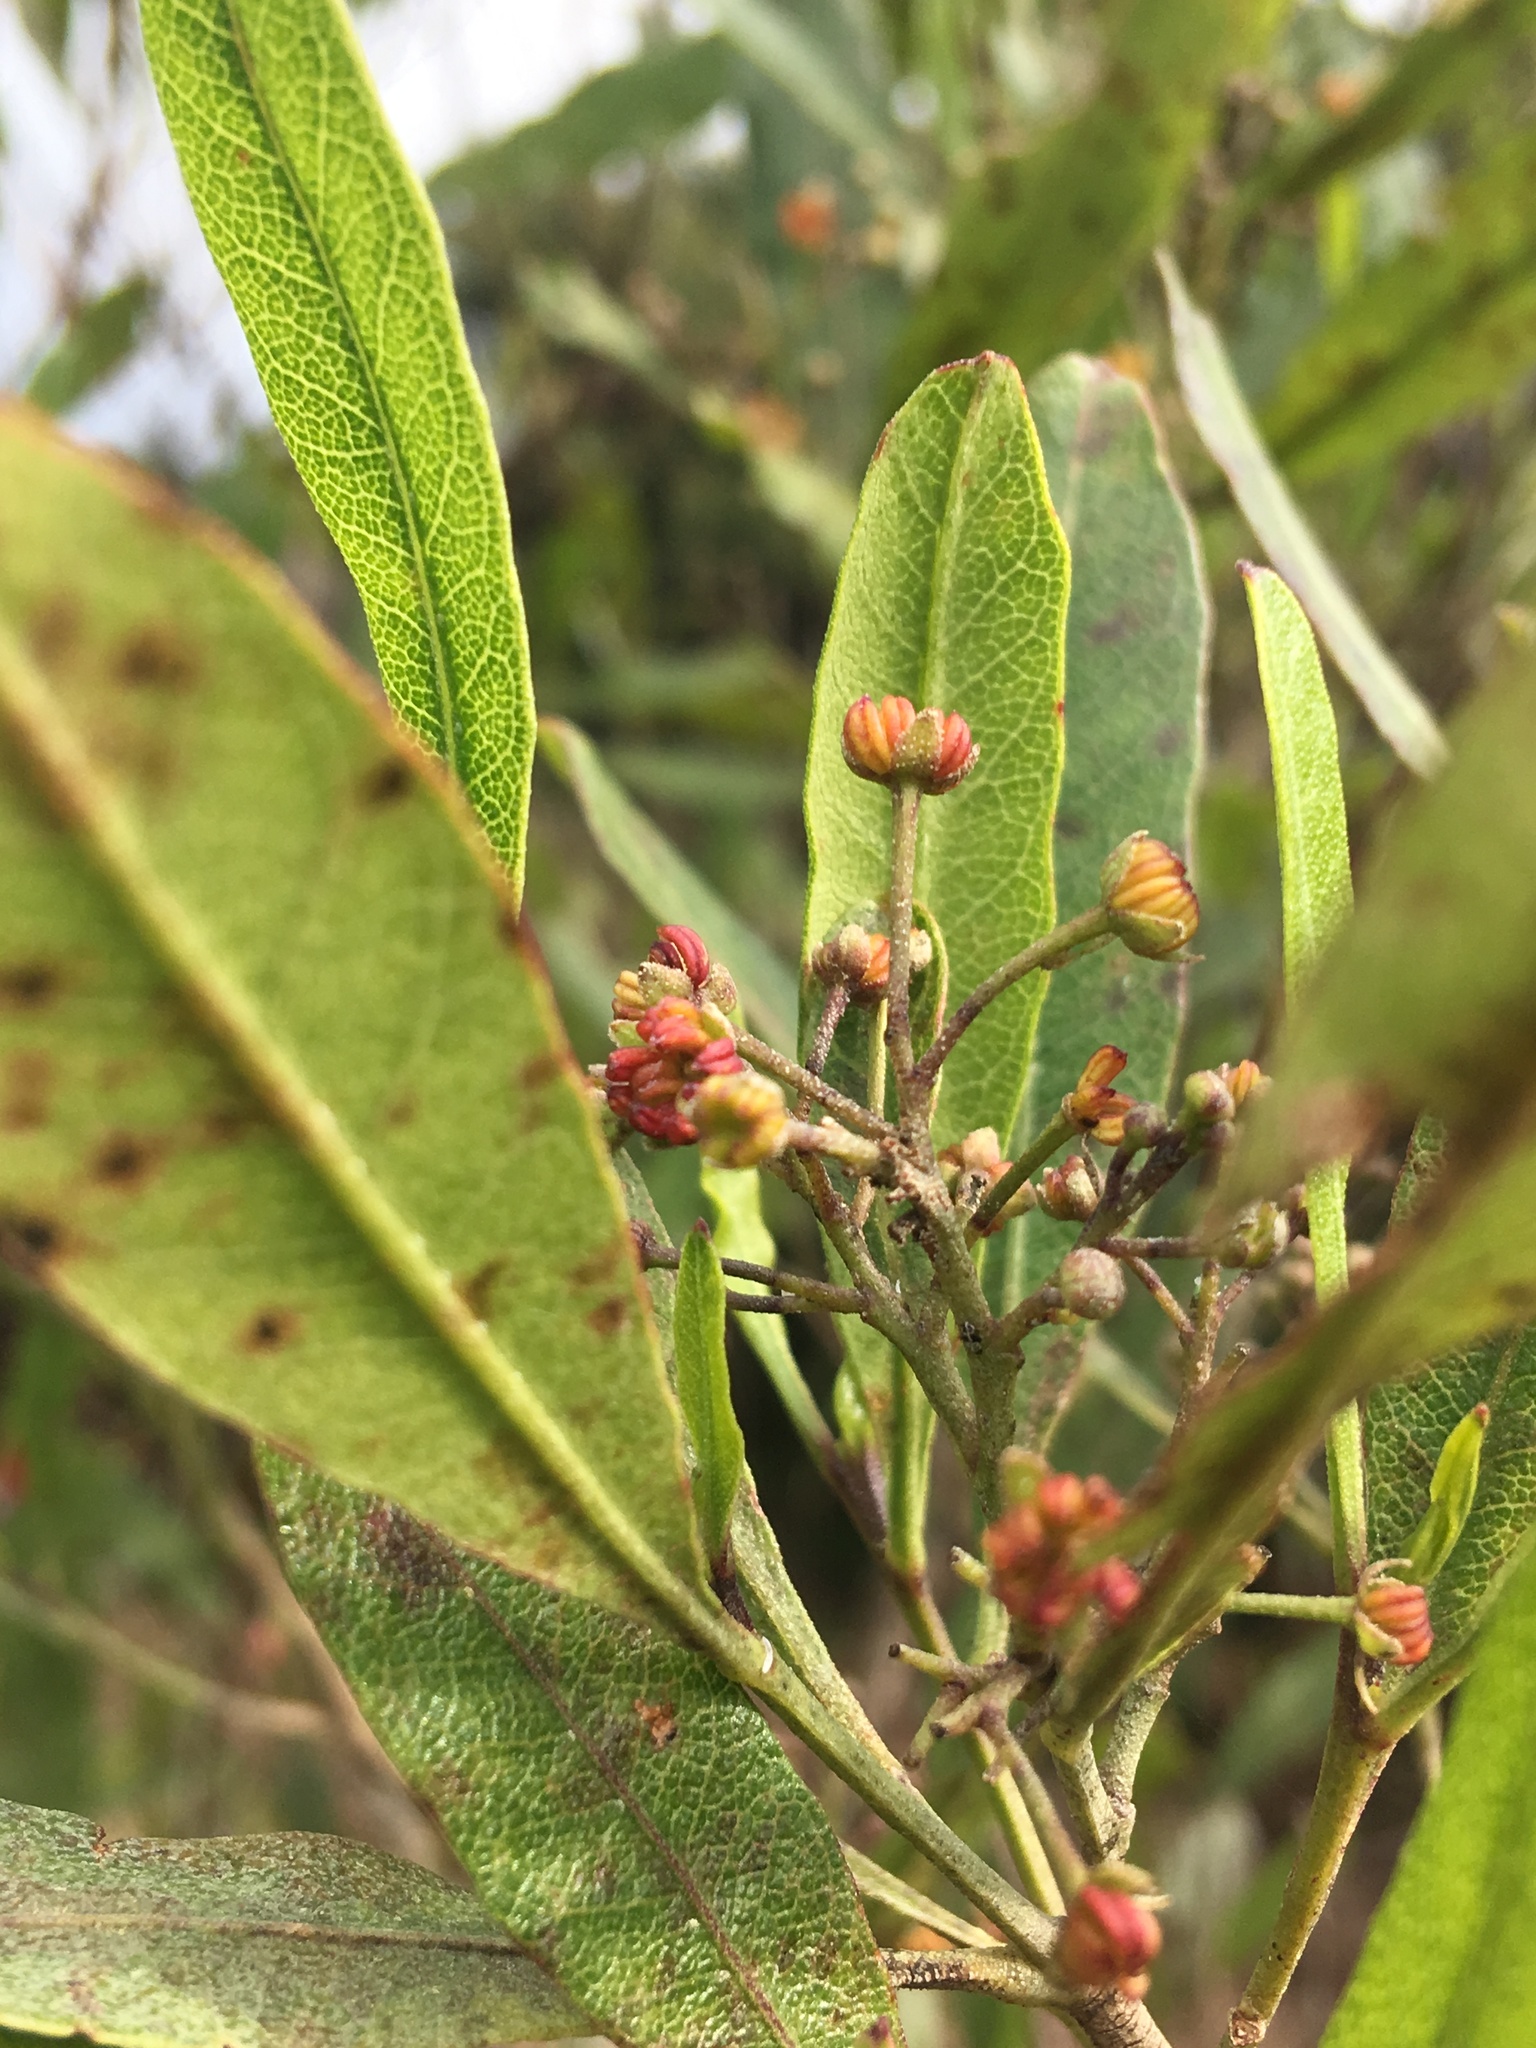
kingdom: Plantae
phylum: Tracheophyta
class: Magnoliopsida
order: Sapindales
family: Sapindaceae
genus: Dodonaea
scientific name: Dodonaea viscosa
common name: Hopbush
